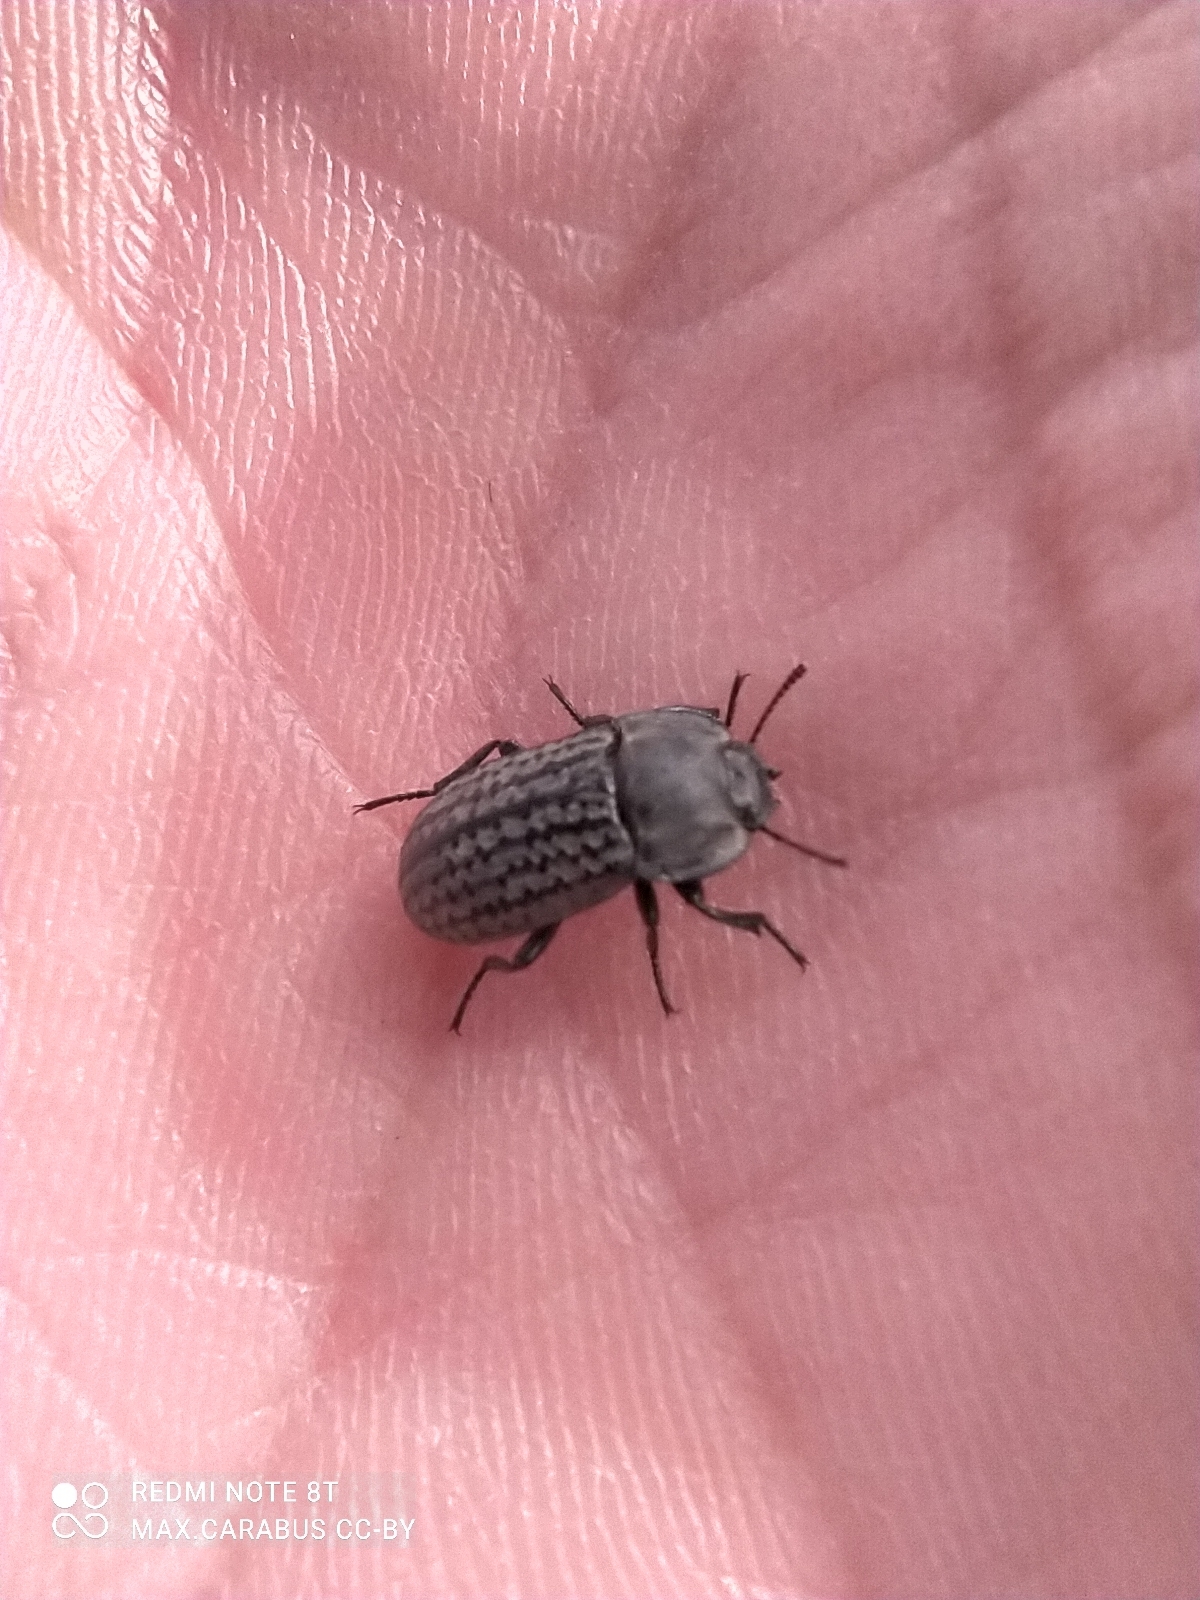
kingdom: Animalia
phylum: Arthropoda
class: Insecta
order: Coleoptera
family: Tenebrionidae
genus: Opatrum
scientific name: Opatrum sabulosum
